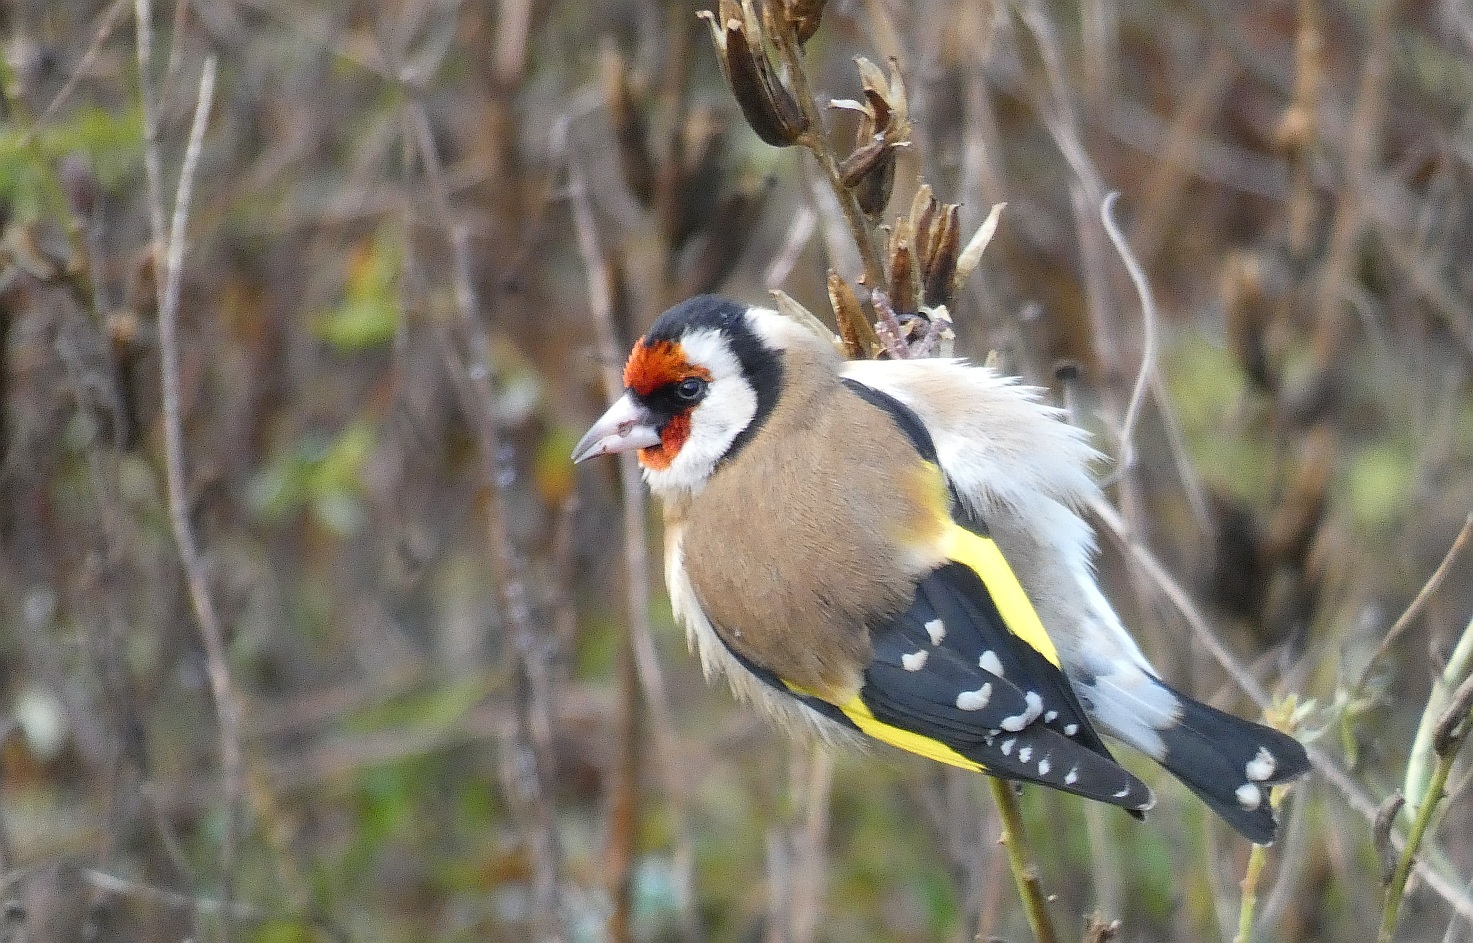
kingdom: Animalia
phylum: Chordata
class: Aves
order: Passeriformes
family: Fringillidae
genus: Carduelis
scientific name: Carduelis carduelis
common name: European goldfinch
